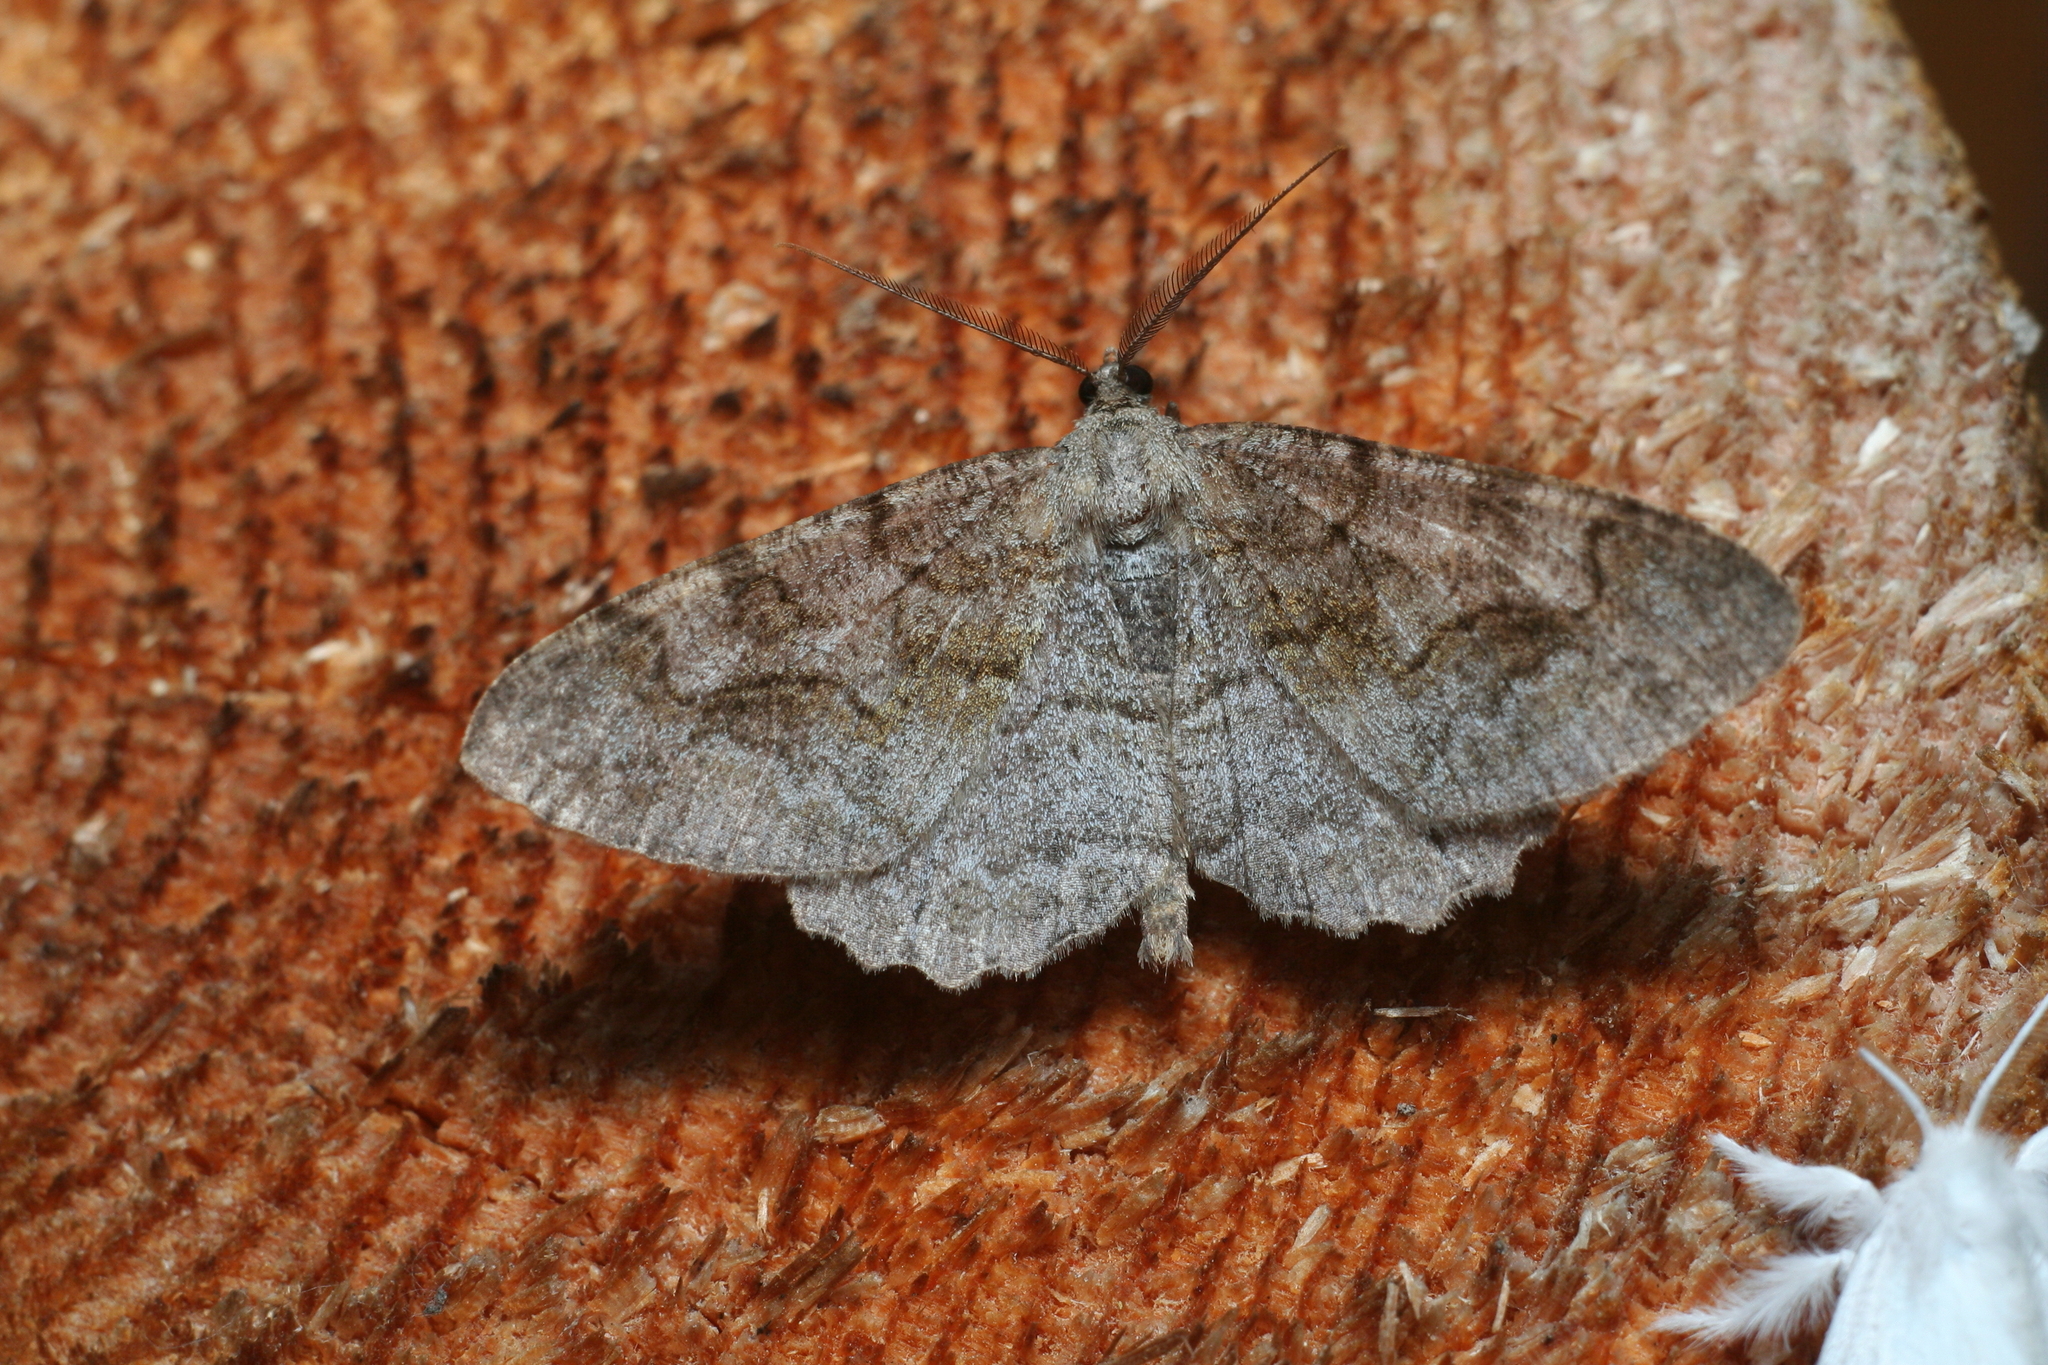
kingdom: Animalia
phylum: Arthropoda
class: Insecta
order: Lepidoptera
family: Geometridae
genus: Alcis
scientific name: Alcis repandata
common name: Mottled beauty
